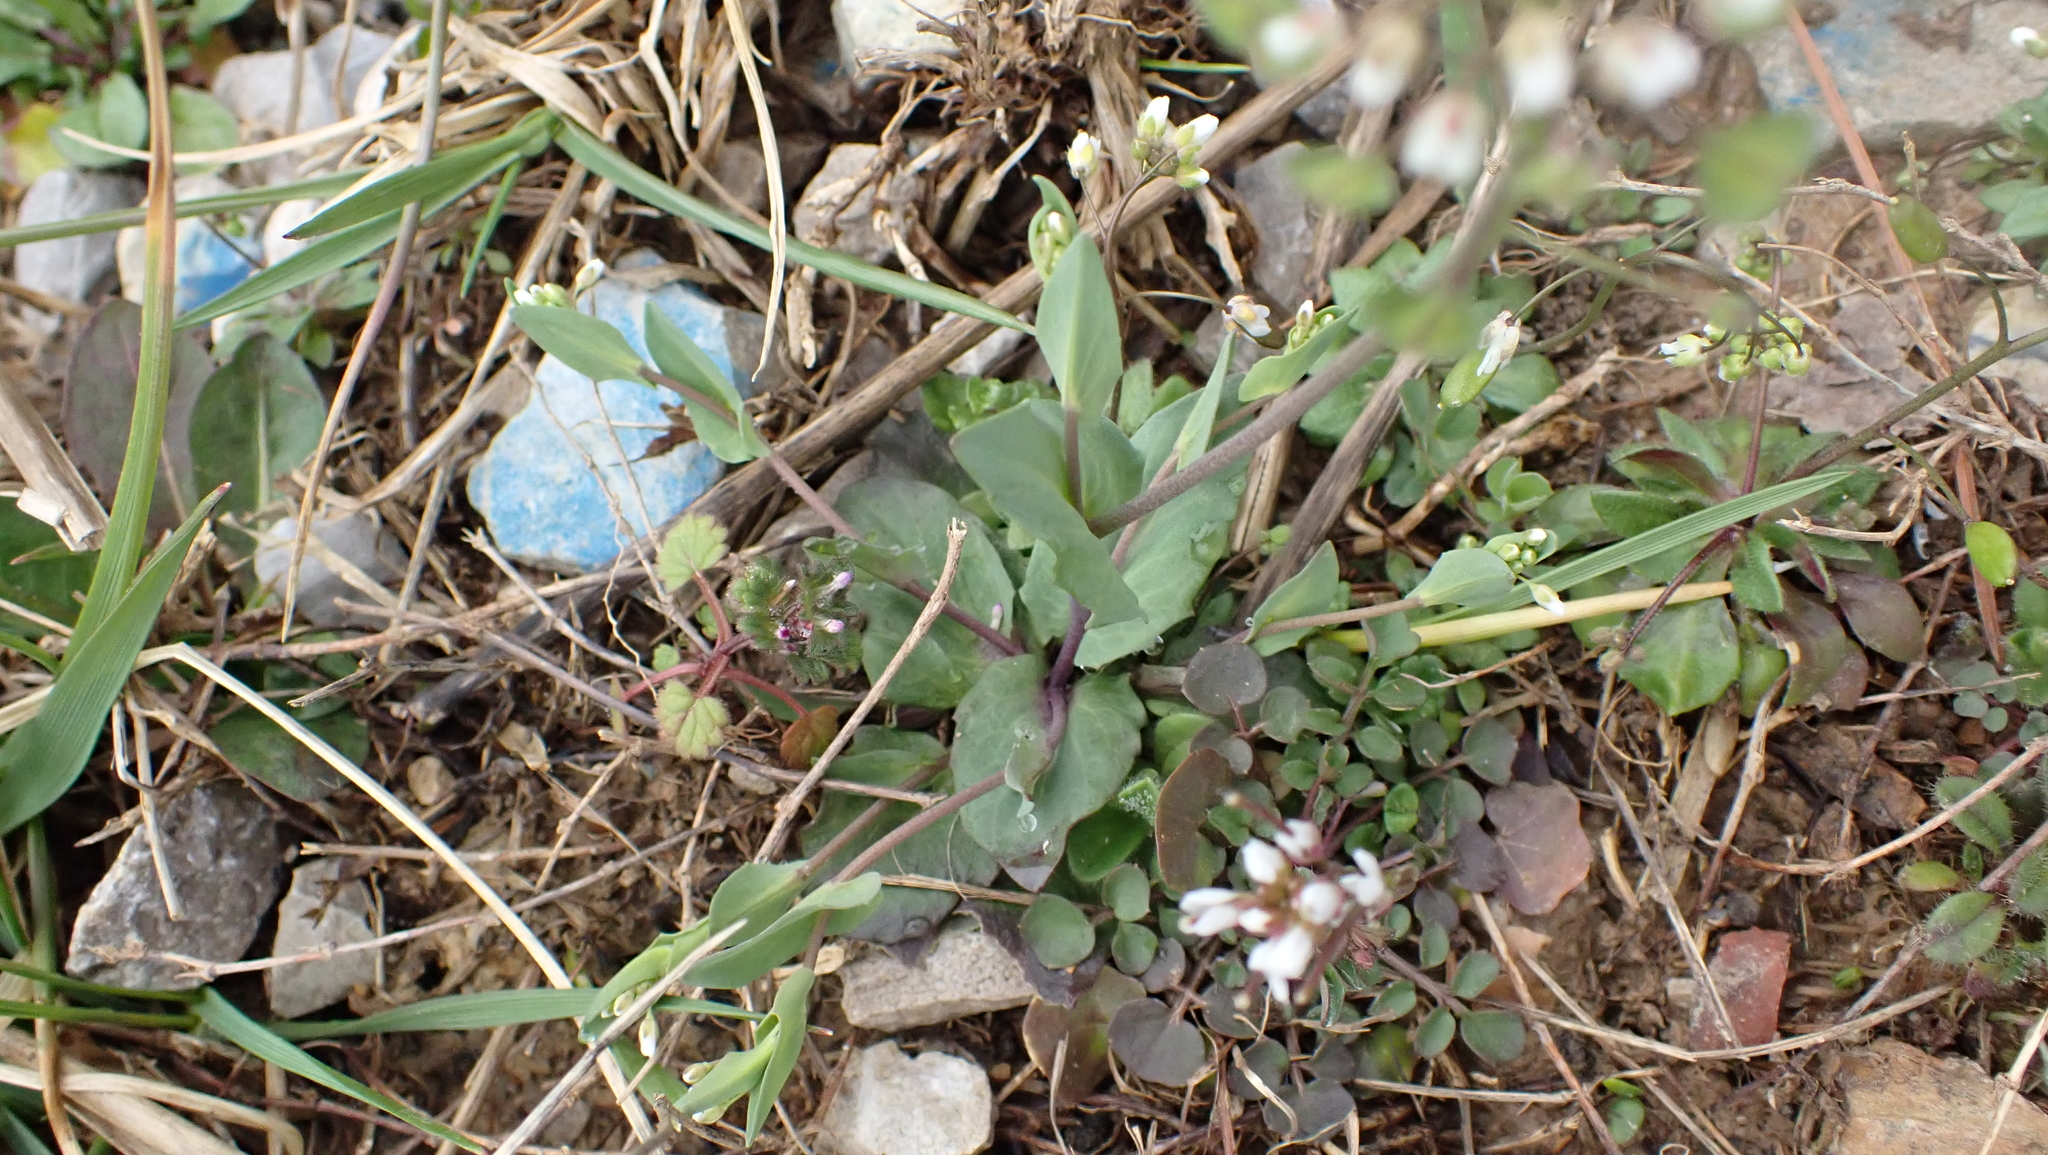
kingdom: Plantae
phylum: Tracheophyta
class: Magnoliopsida
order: Brassicales
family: Brassicaceae
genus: Noccaea
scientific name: Noccaea perfoliata
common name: Perfoliate pennycress
